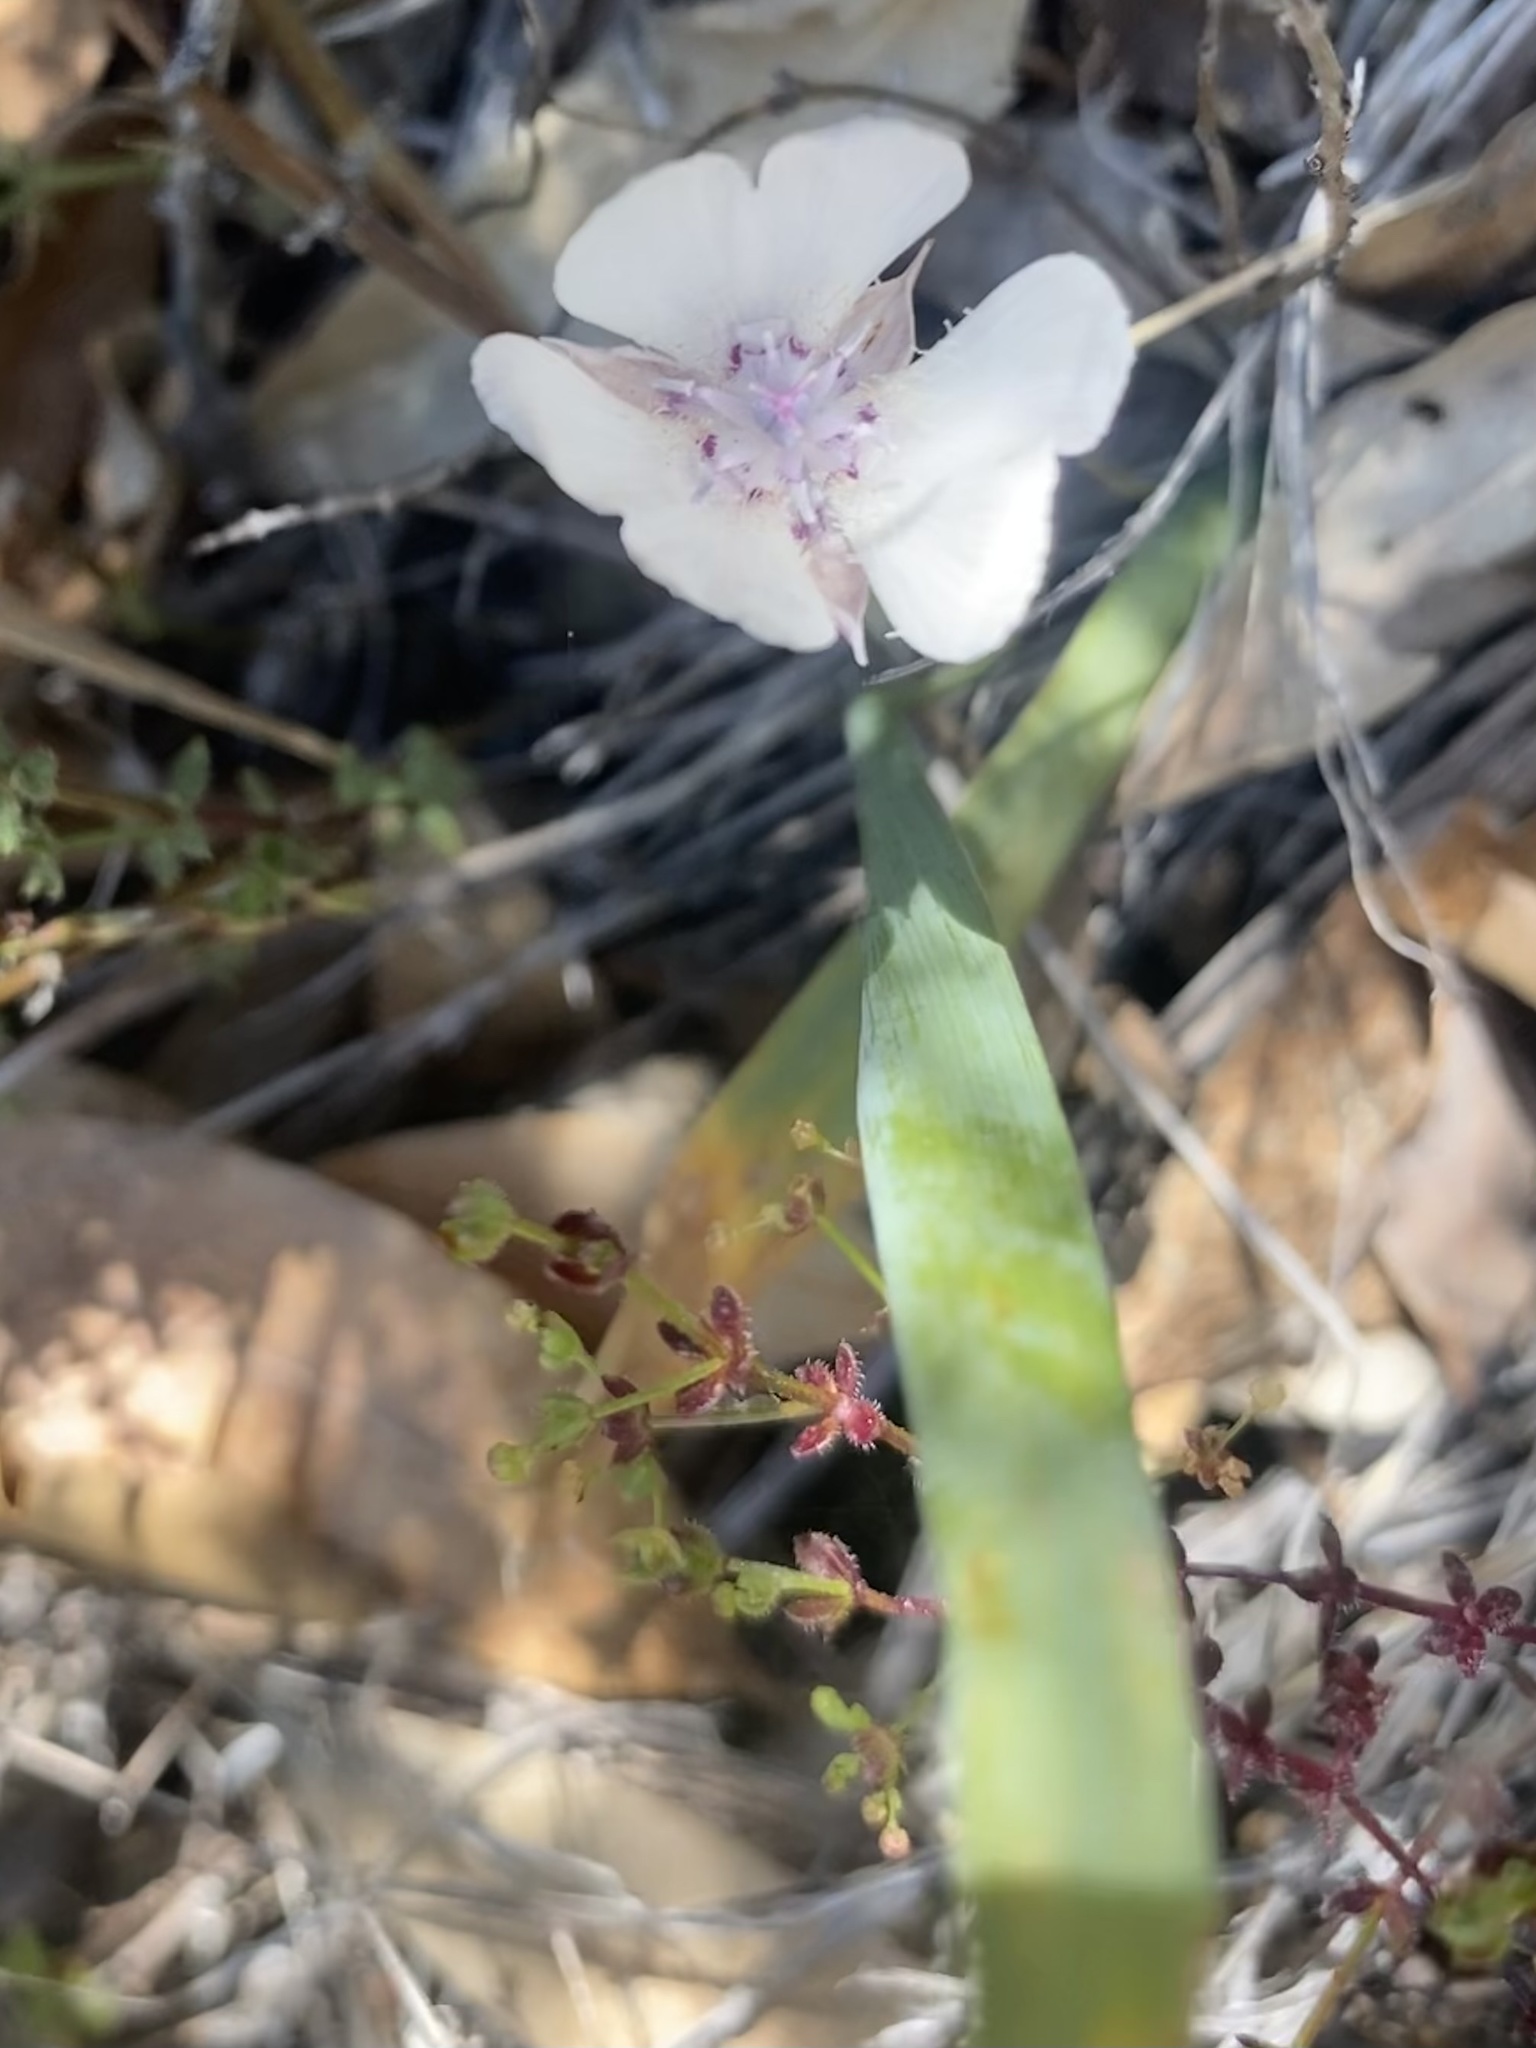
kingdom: Plantae
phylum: Tracheophyta
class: Liliopsida
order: Liliales
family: Liliaceae
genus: Calochortus
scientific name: Calochortus umbellatus
